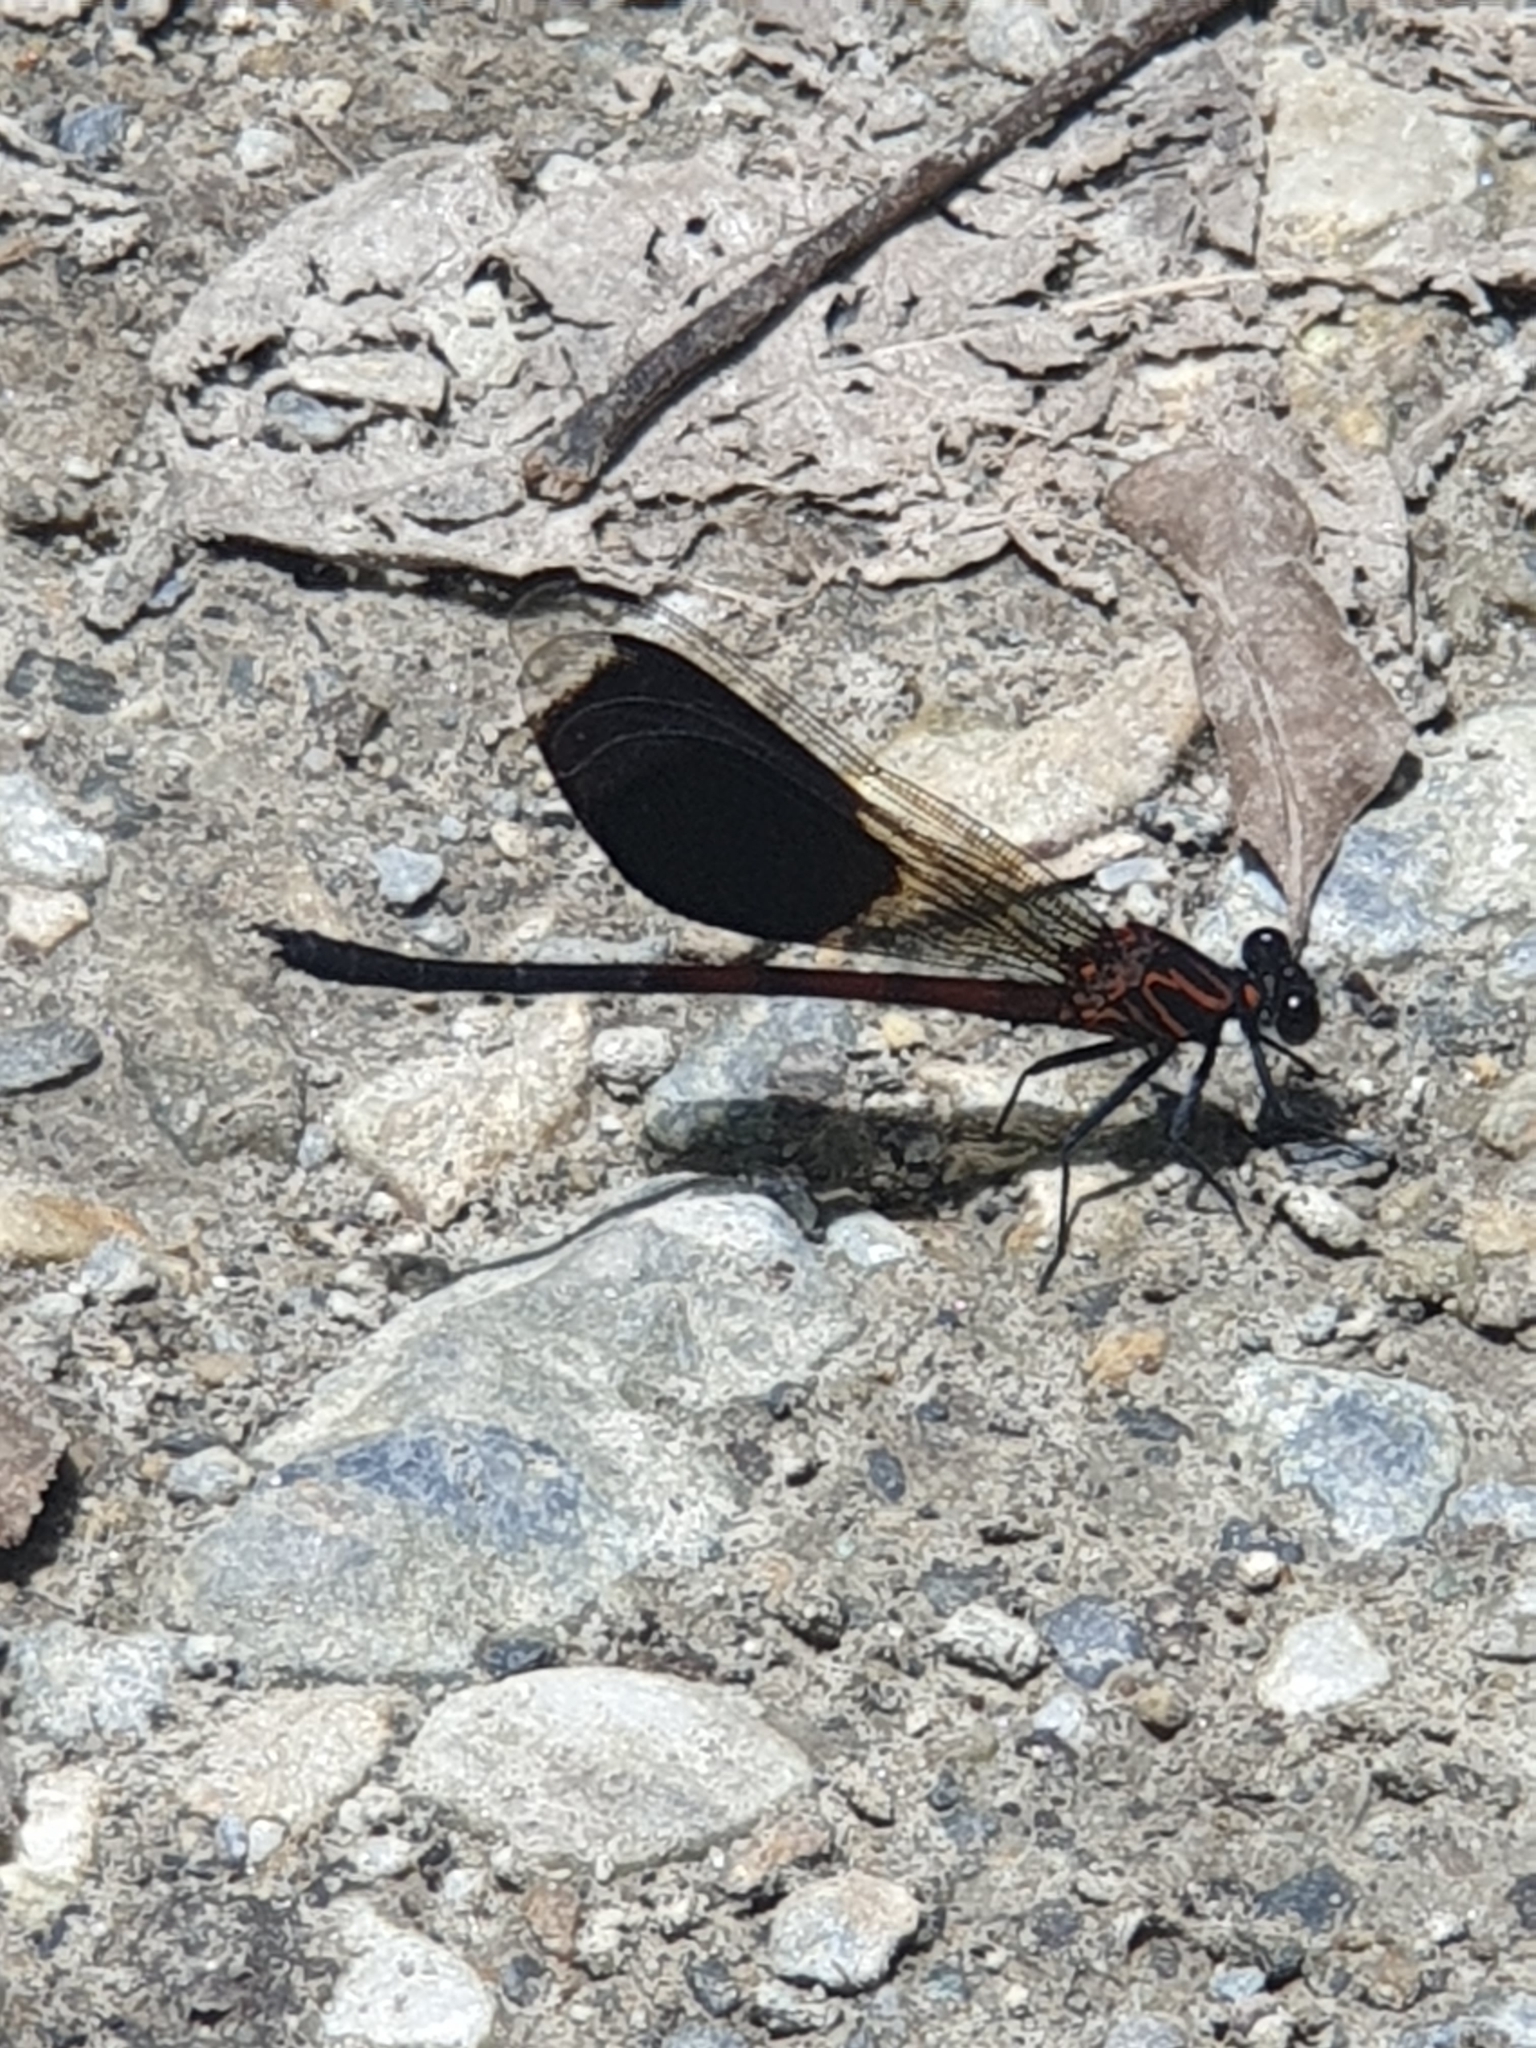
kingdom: Animalia
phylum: Arthropoda
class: Insecta
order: Odonata
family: Euphaeidae
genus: Euphaea
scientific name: Euphaea formosa
